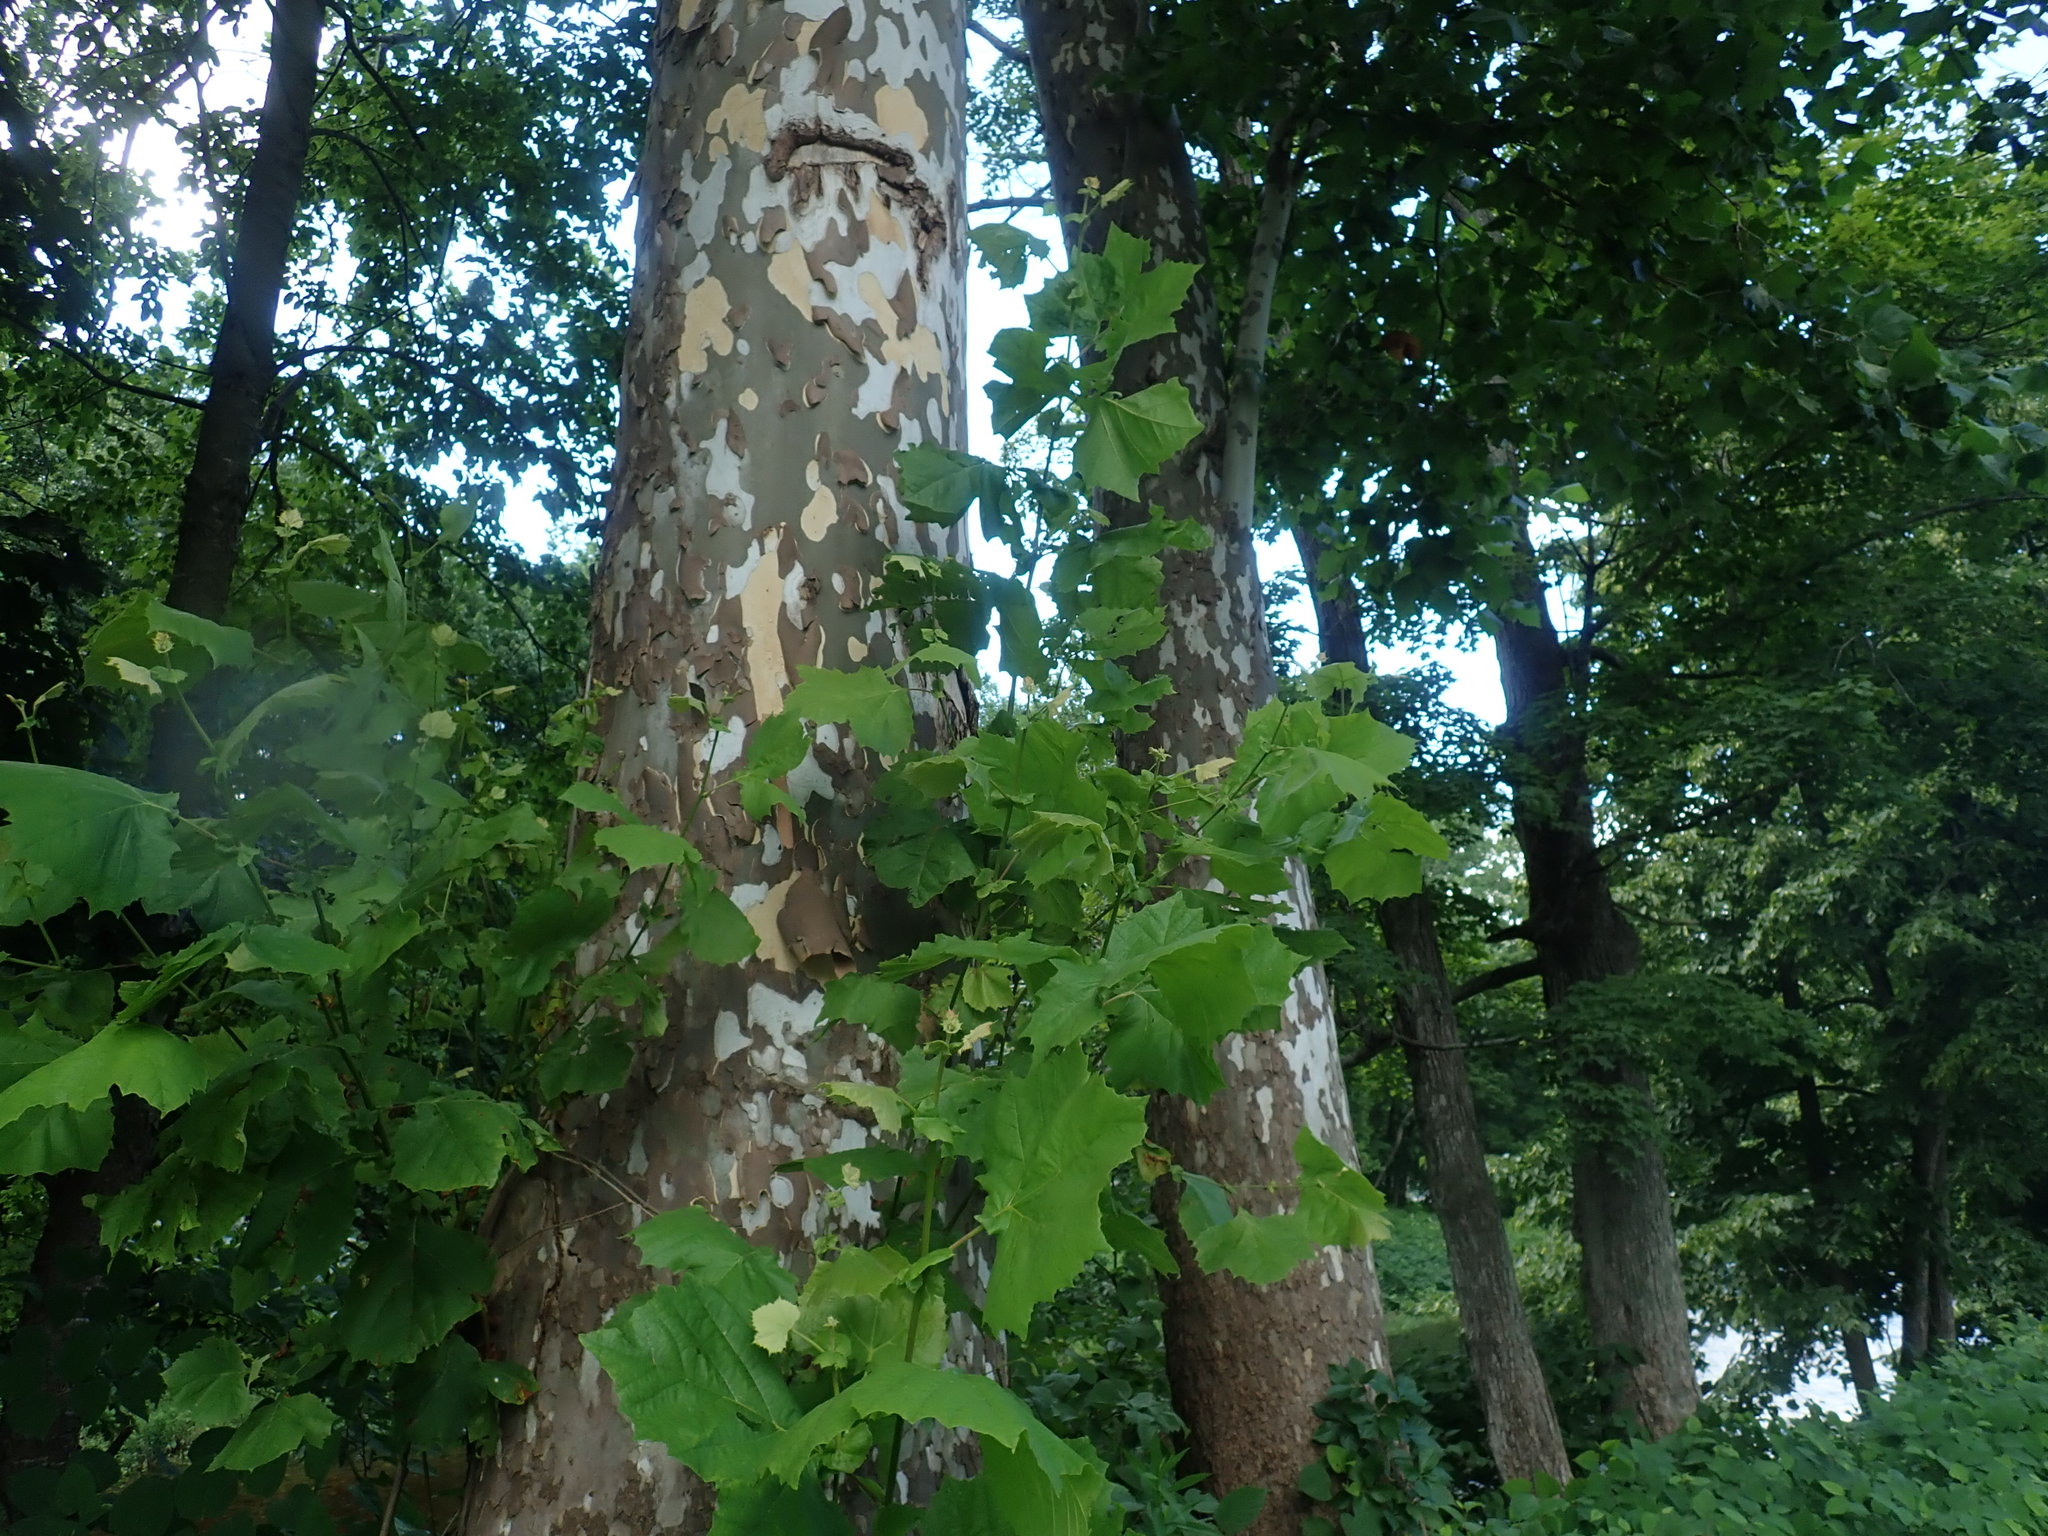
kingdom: Plantae
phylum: Tracheophyta
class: Magnoliopsida
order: Proteales
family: Platanaceae
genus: Platanus
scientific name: Platanus occidentalis
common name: American sycamore
